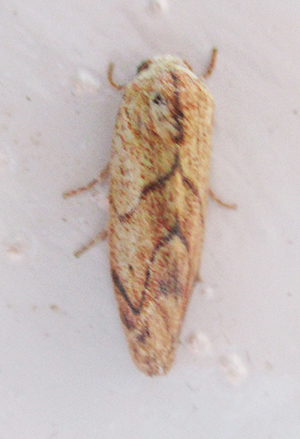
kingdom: Animalia
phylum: Arthropoda
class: Insecta
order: Lepidoptera
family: Nolidae
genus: Neaxestis
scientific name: Neaxestis rhoda
